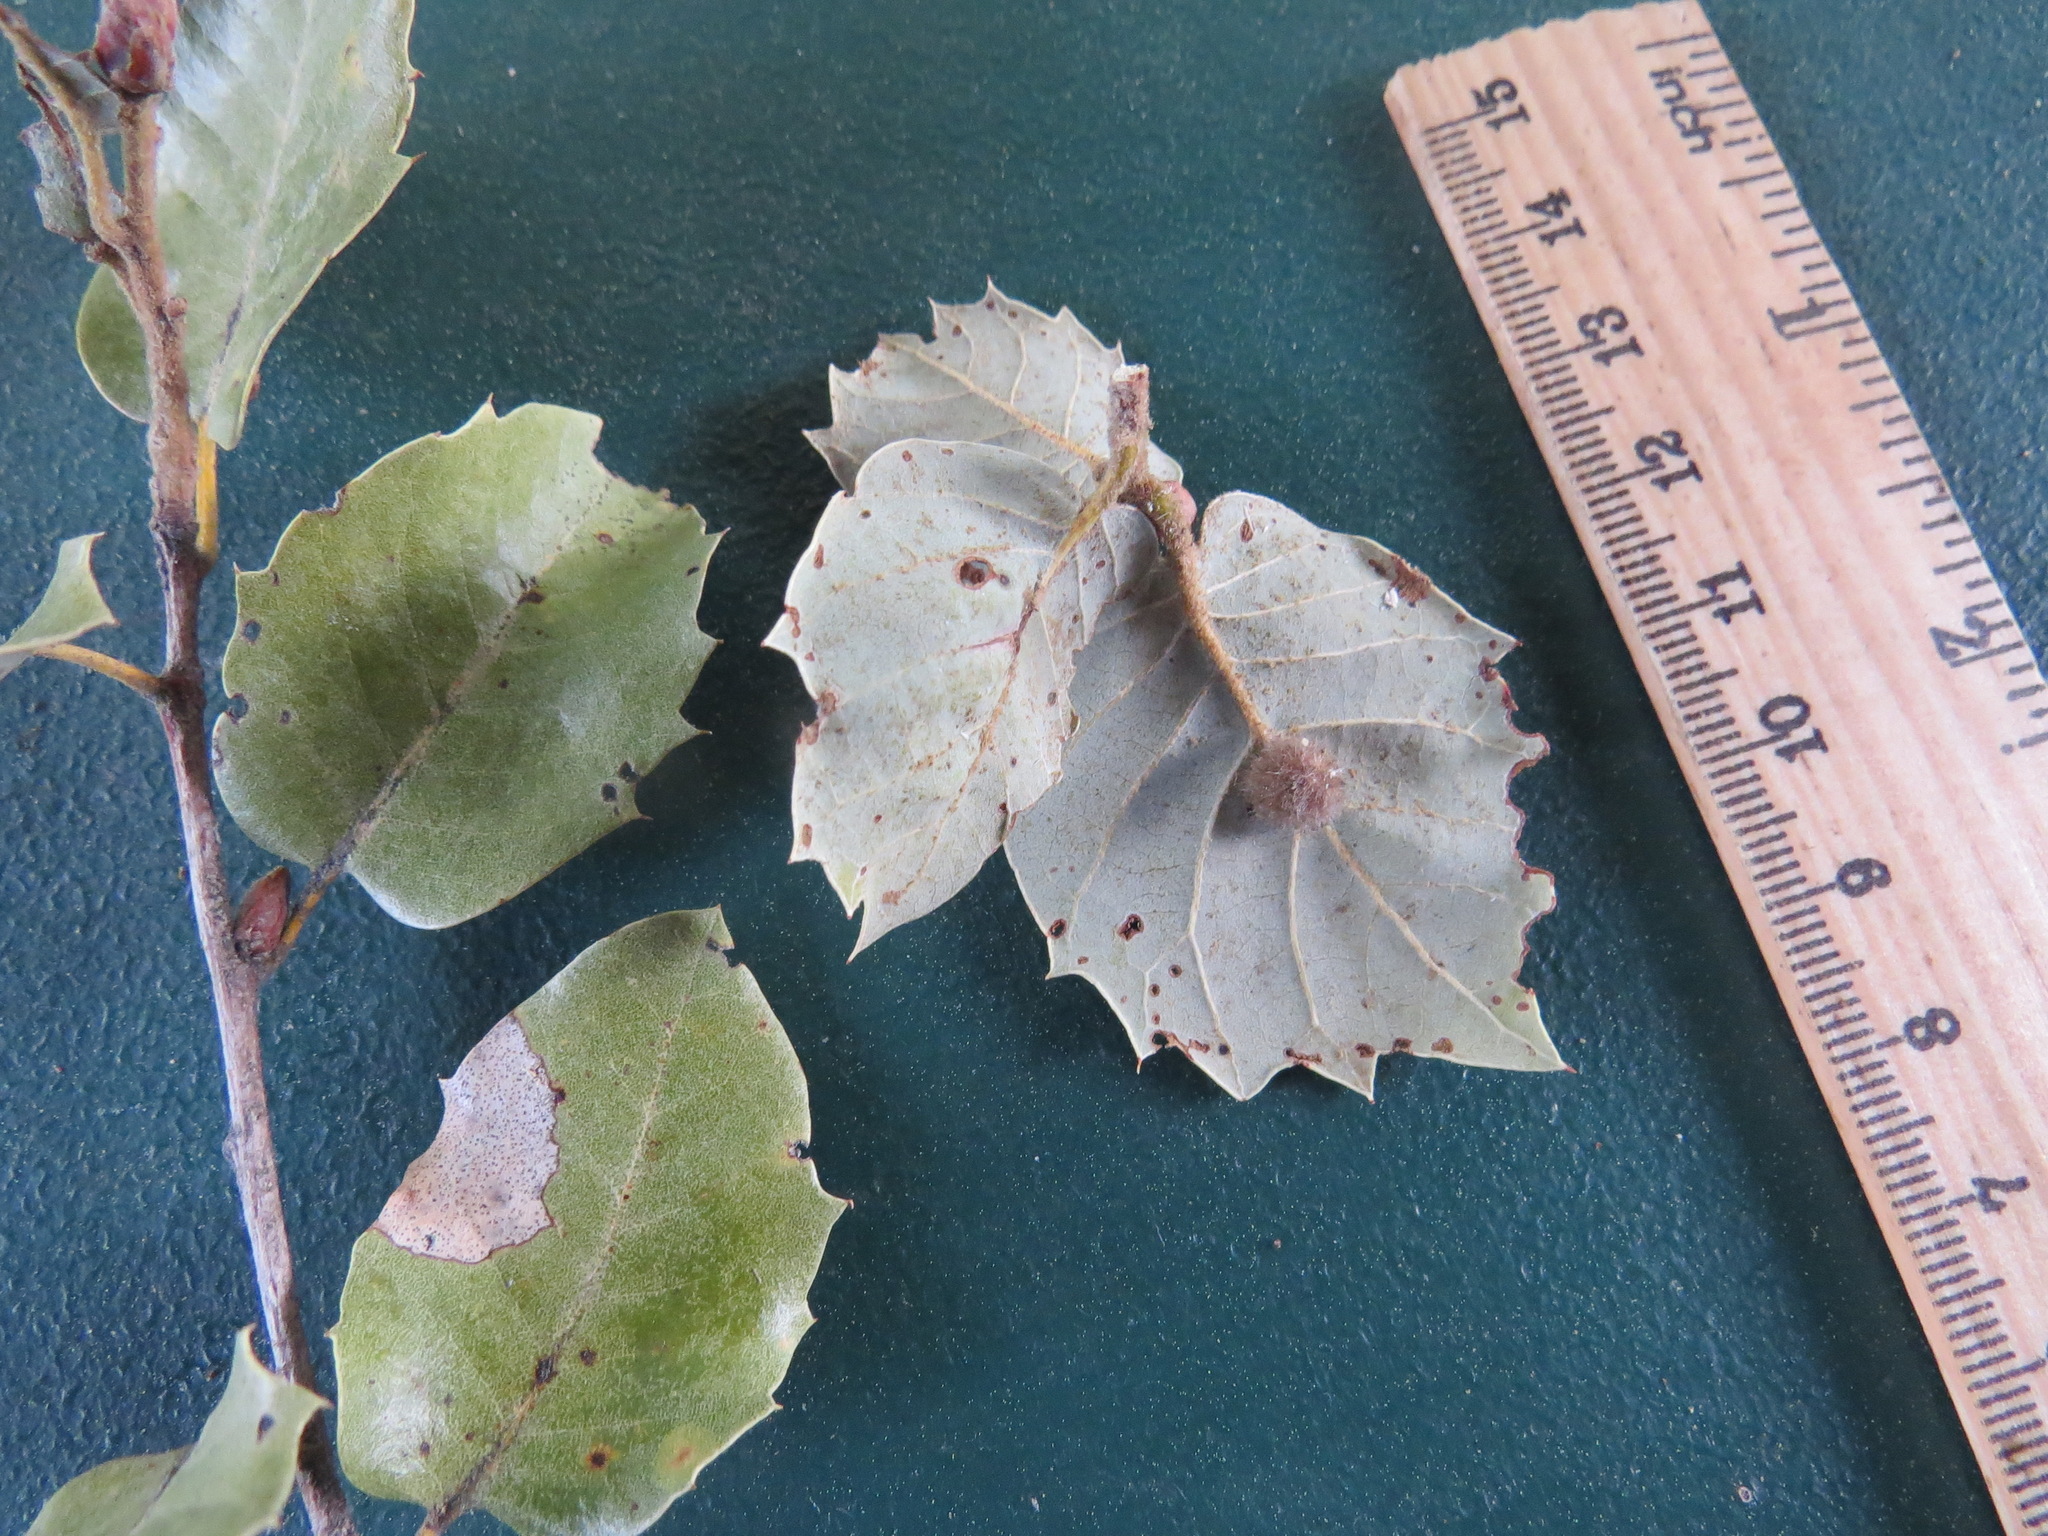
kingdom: Animalia
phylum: Arthropoda
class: Insecta
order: Hymenoptera
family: Cynipidae
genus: Disholandricus
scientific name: Disholandricus
